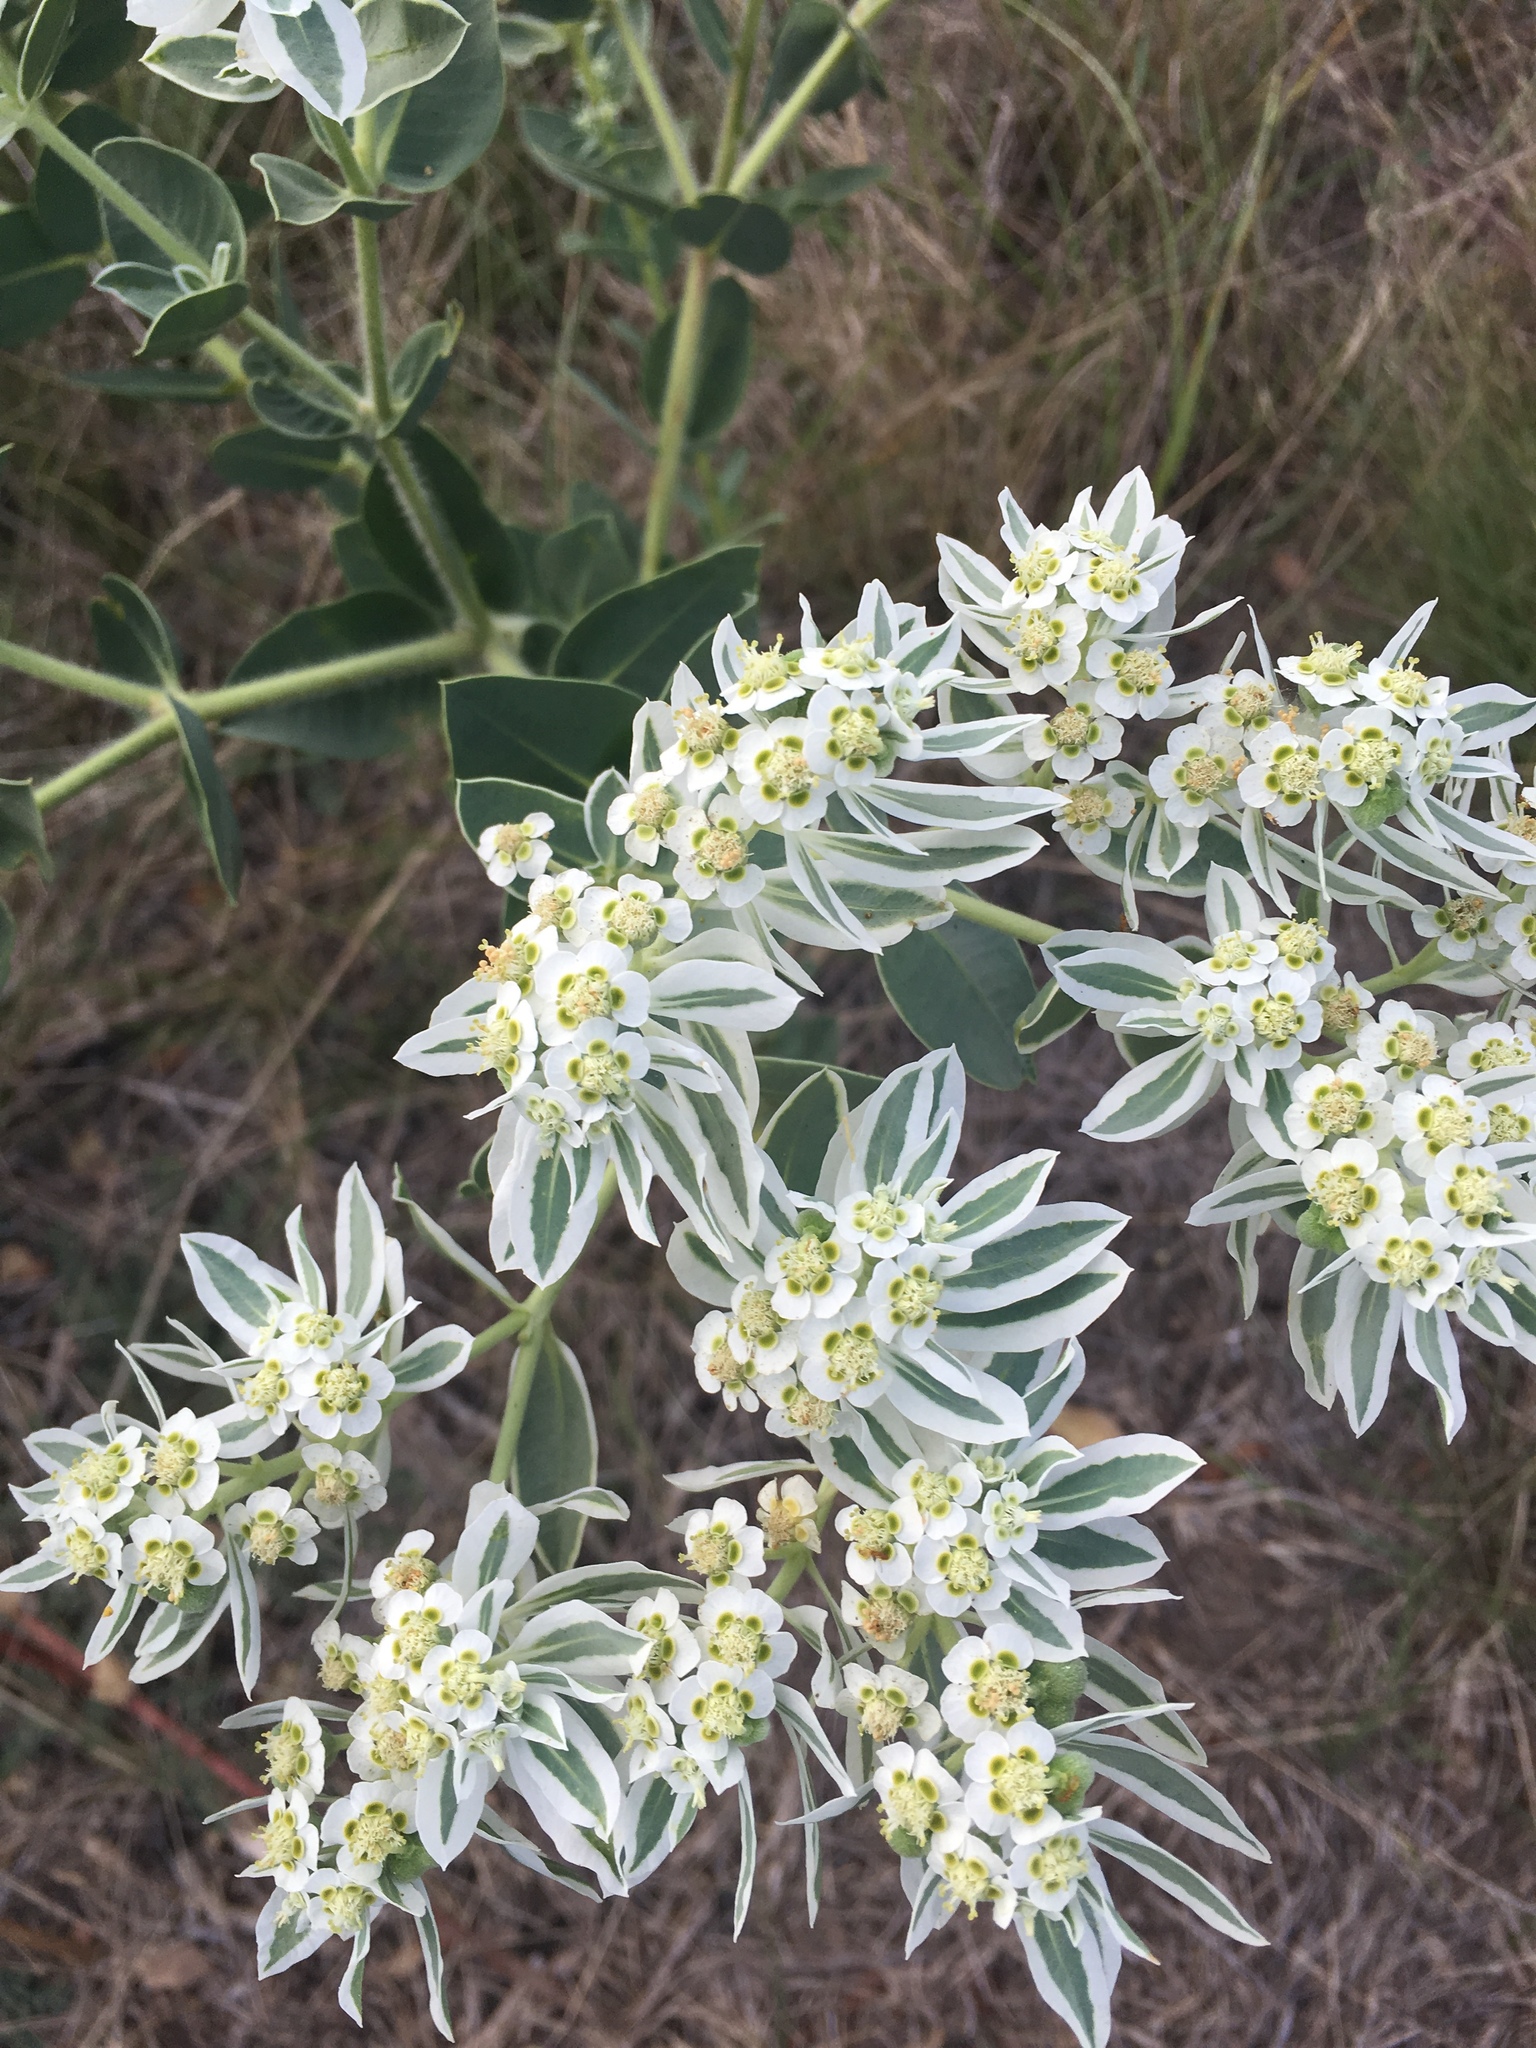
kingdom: Plantae
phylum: Tracheophyta
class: Magnoliopsida
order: Malpighiales
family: Euphorbiaceae
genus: Euphorbia
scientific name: Euphorbia marginata
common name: Ghostweed
